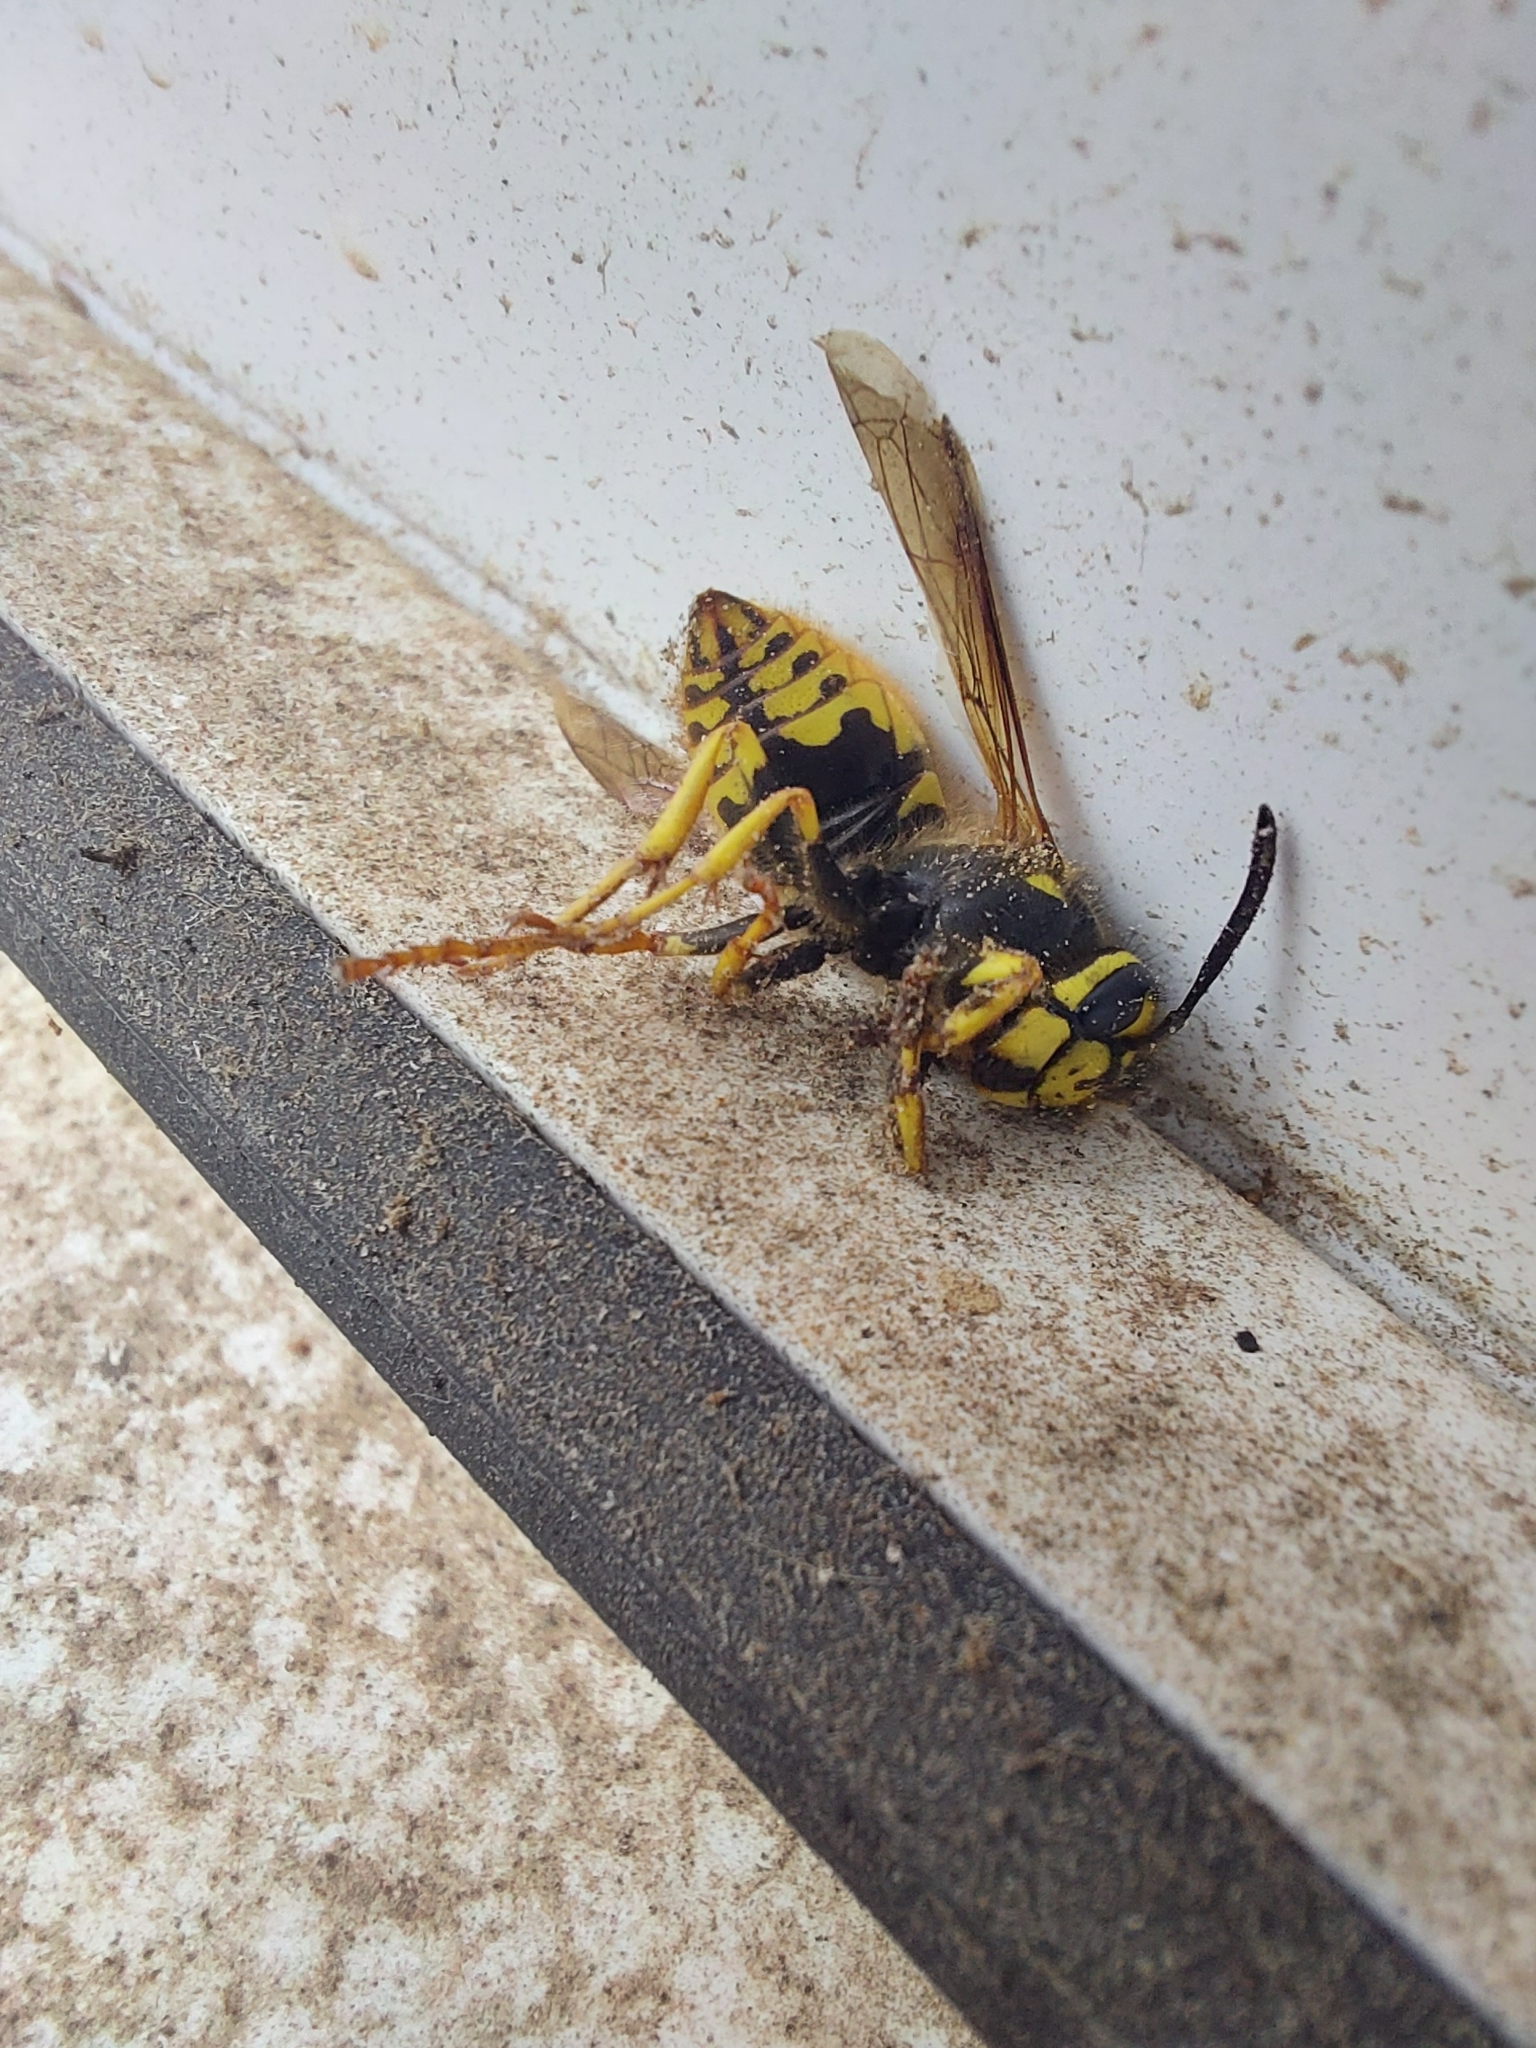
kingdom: Animalia
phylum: Arthropoda
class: Insecta
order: Hymenoptera
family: Vespidae
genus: Vespula
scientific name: Vespula germanica
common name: German wasp
